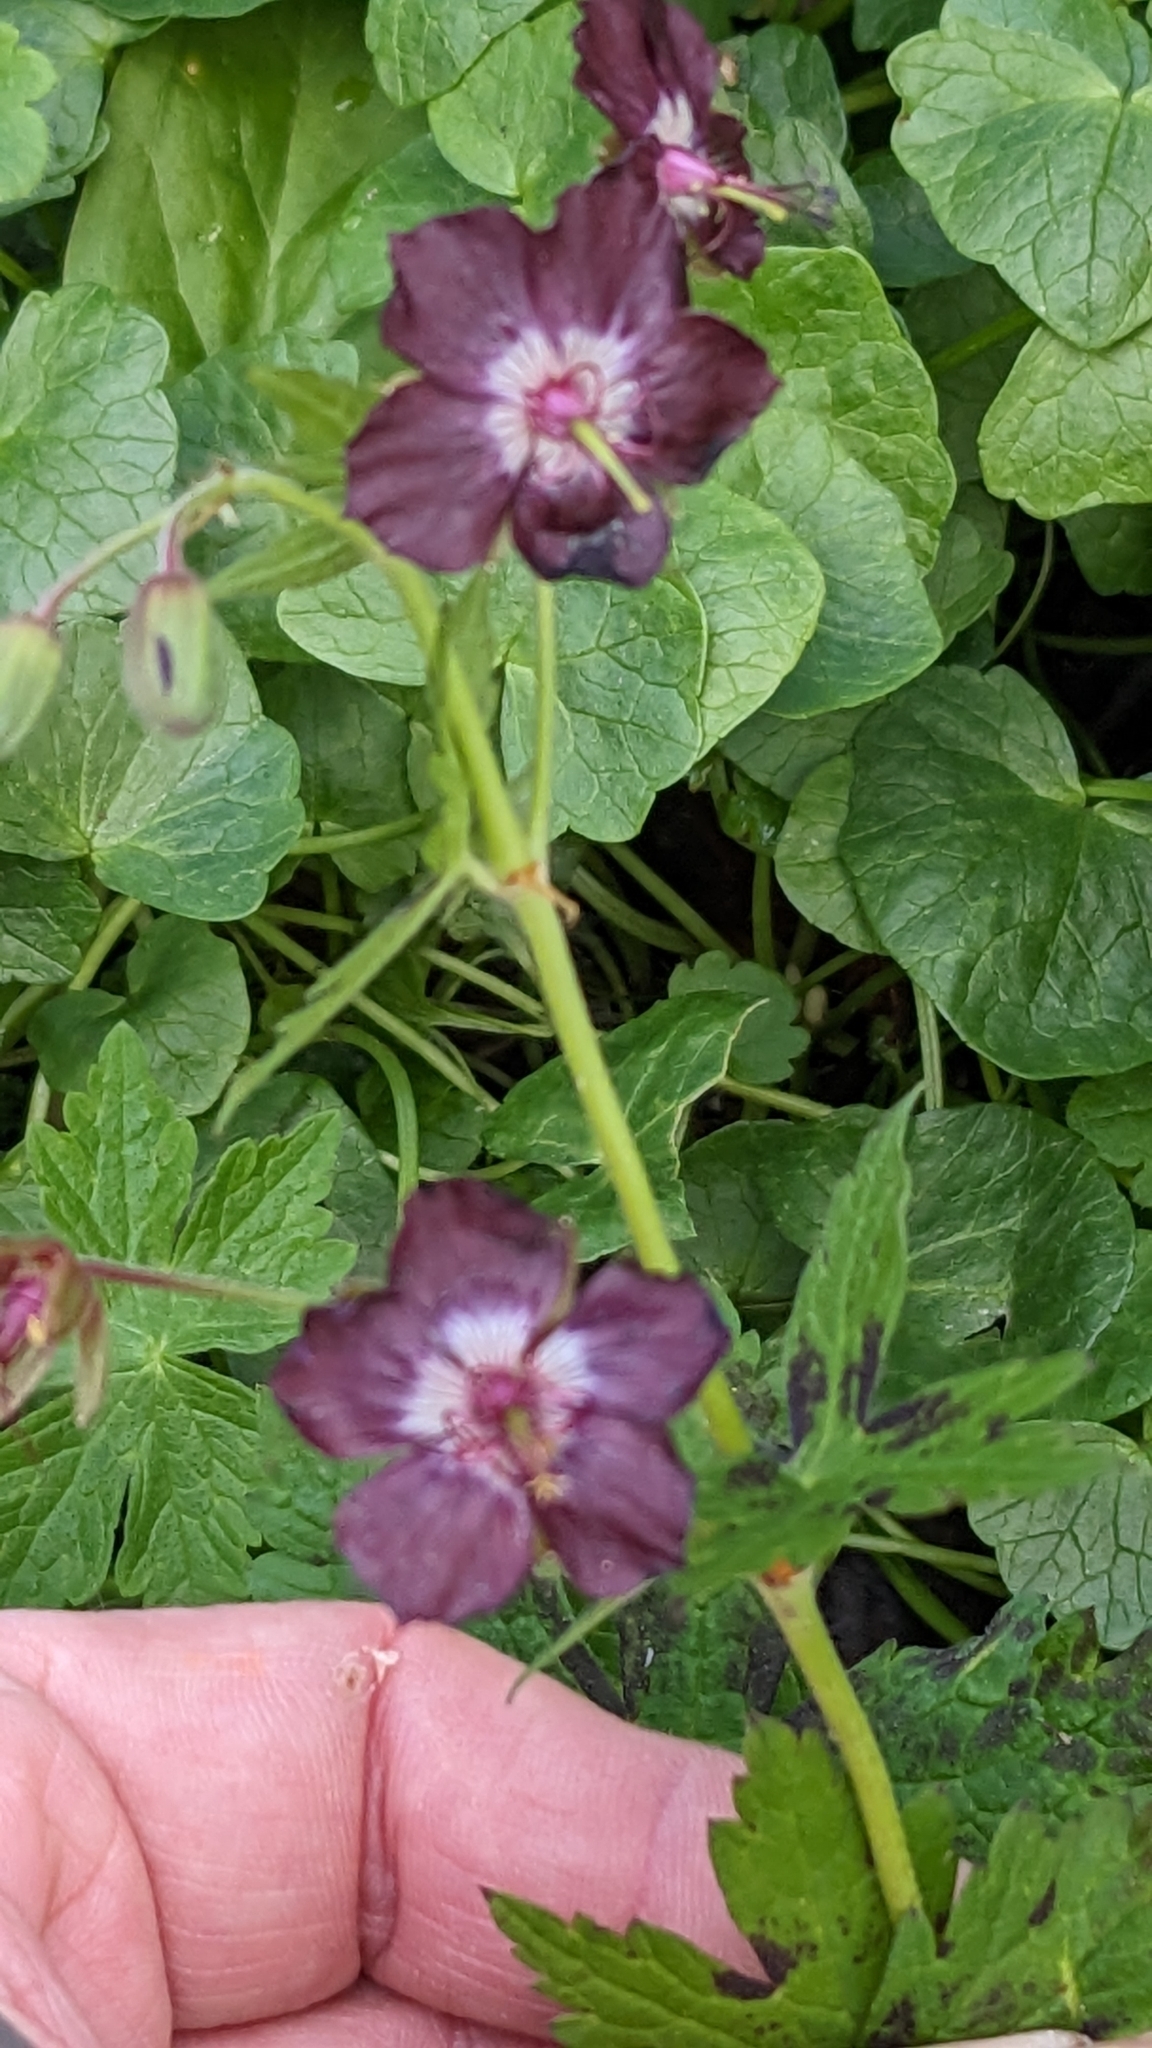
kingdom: Plantae
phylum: Tracheophyta
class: Magnoliopsida
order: Geraniales
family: Geraniaceae
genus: Geranium
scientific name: Geranium phaeum
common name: Dusky crane's-bill
